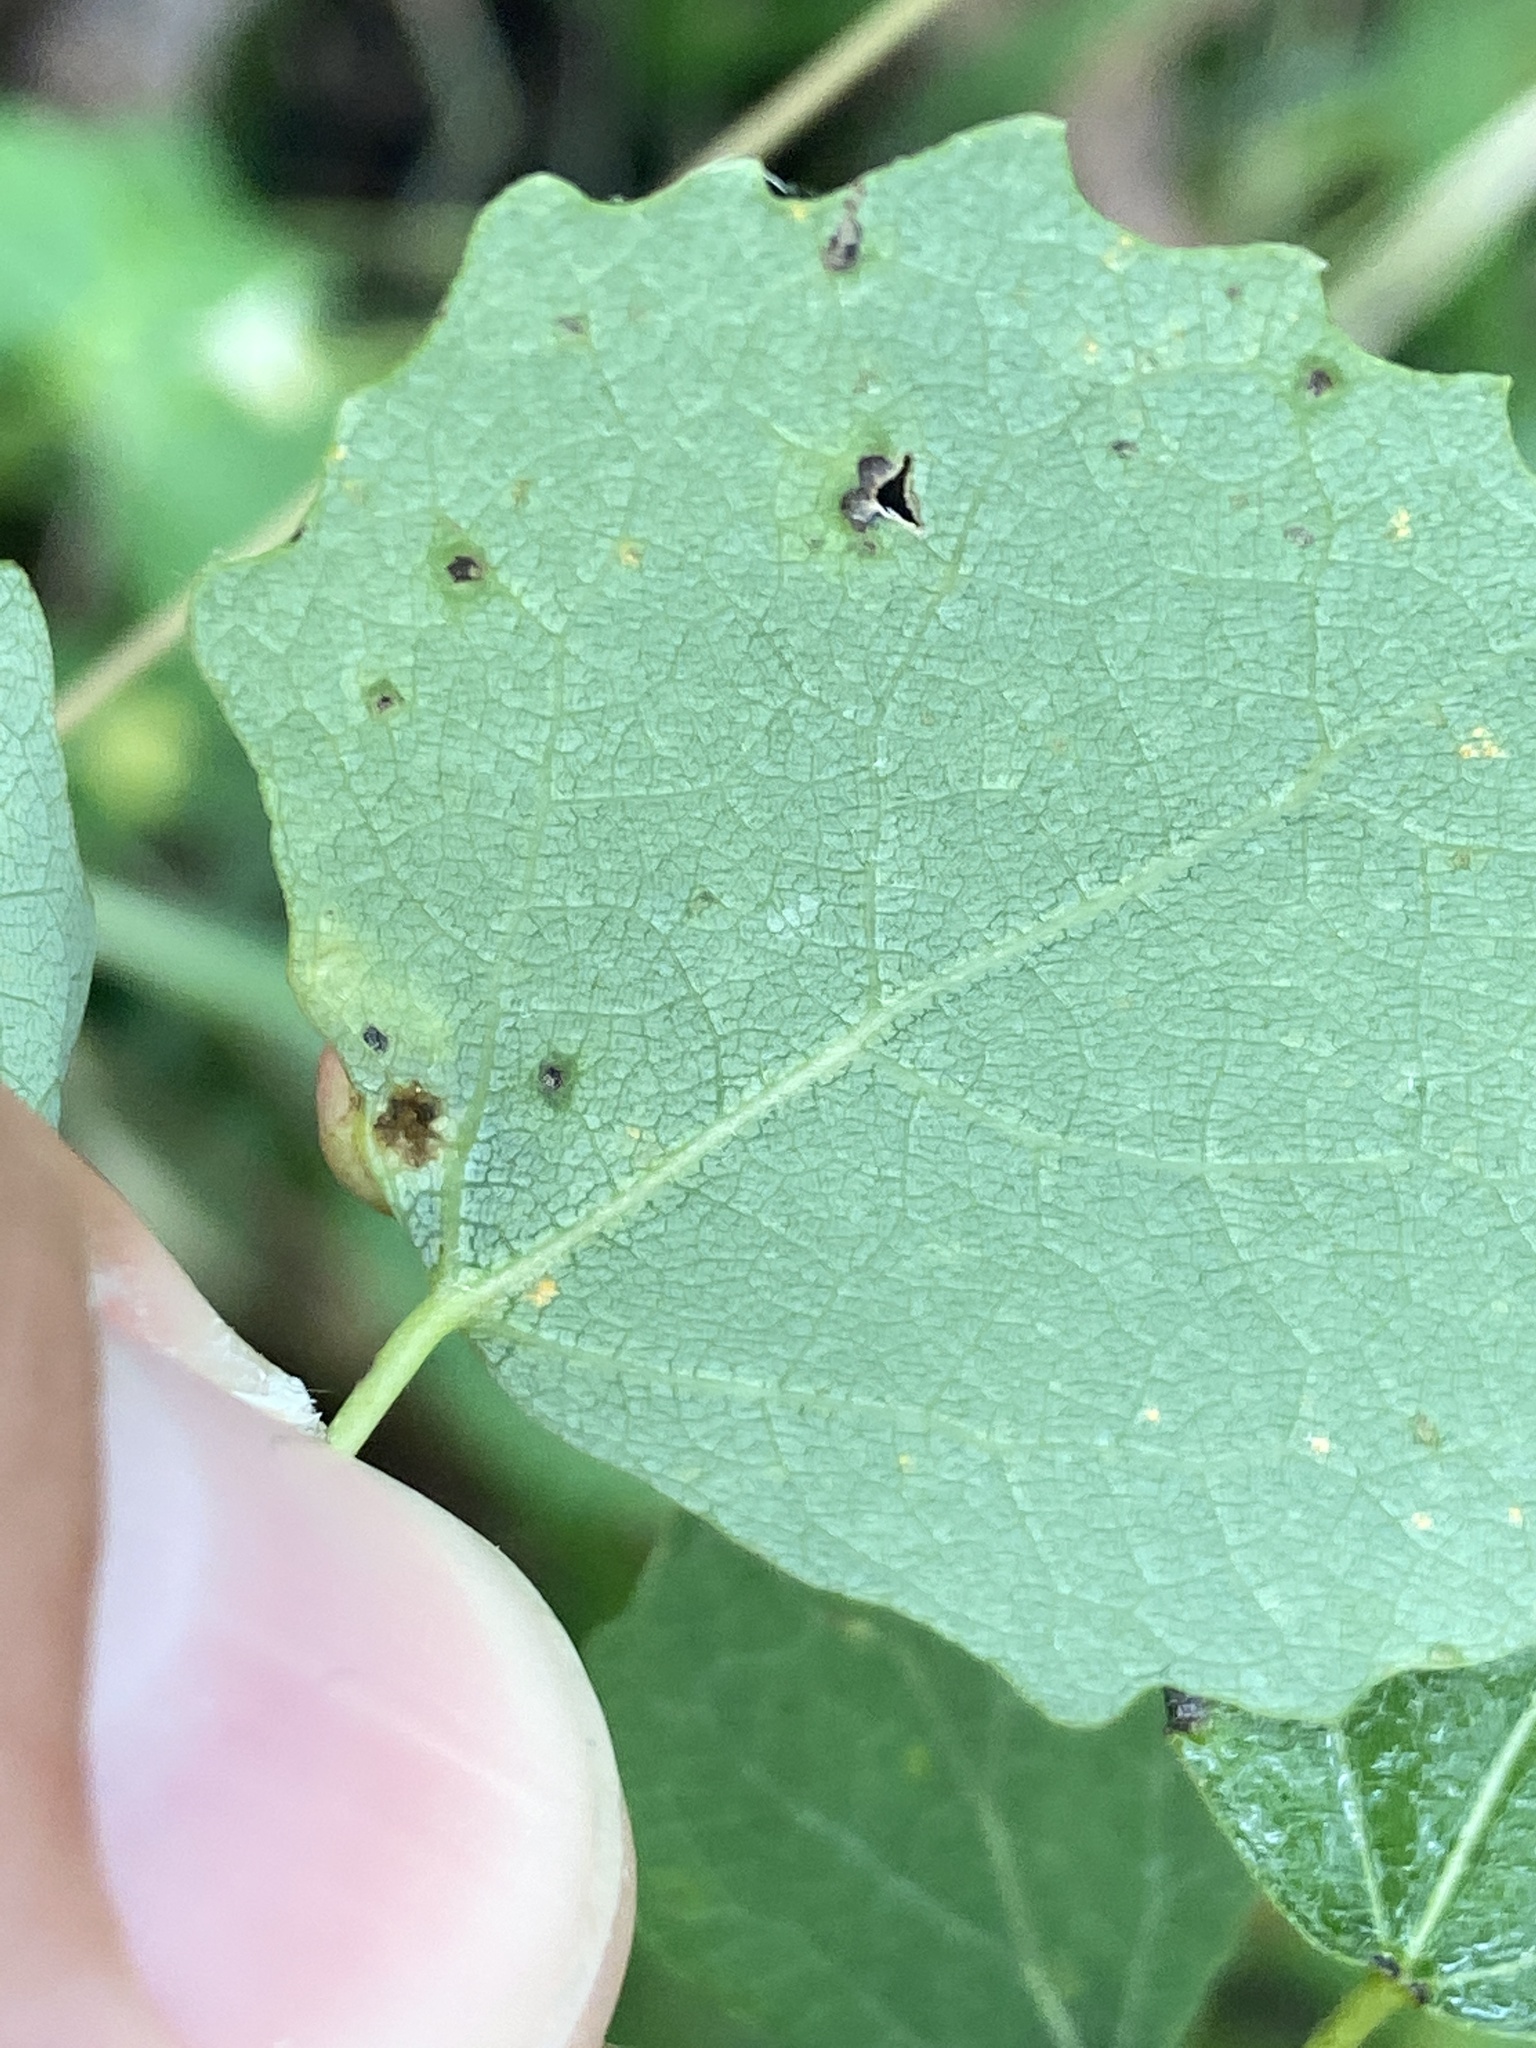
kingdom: Animalia
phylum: Arthropoda
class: Insecta
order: Diptera
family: Cecidomyiidae
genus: Harmandiola
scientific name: Harmandiola tremulae
